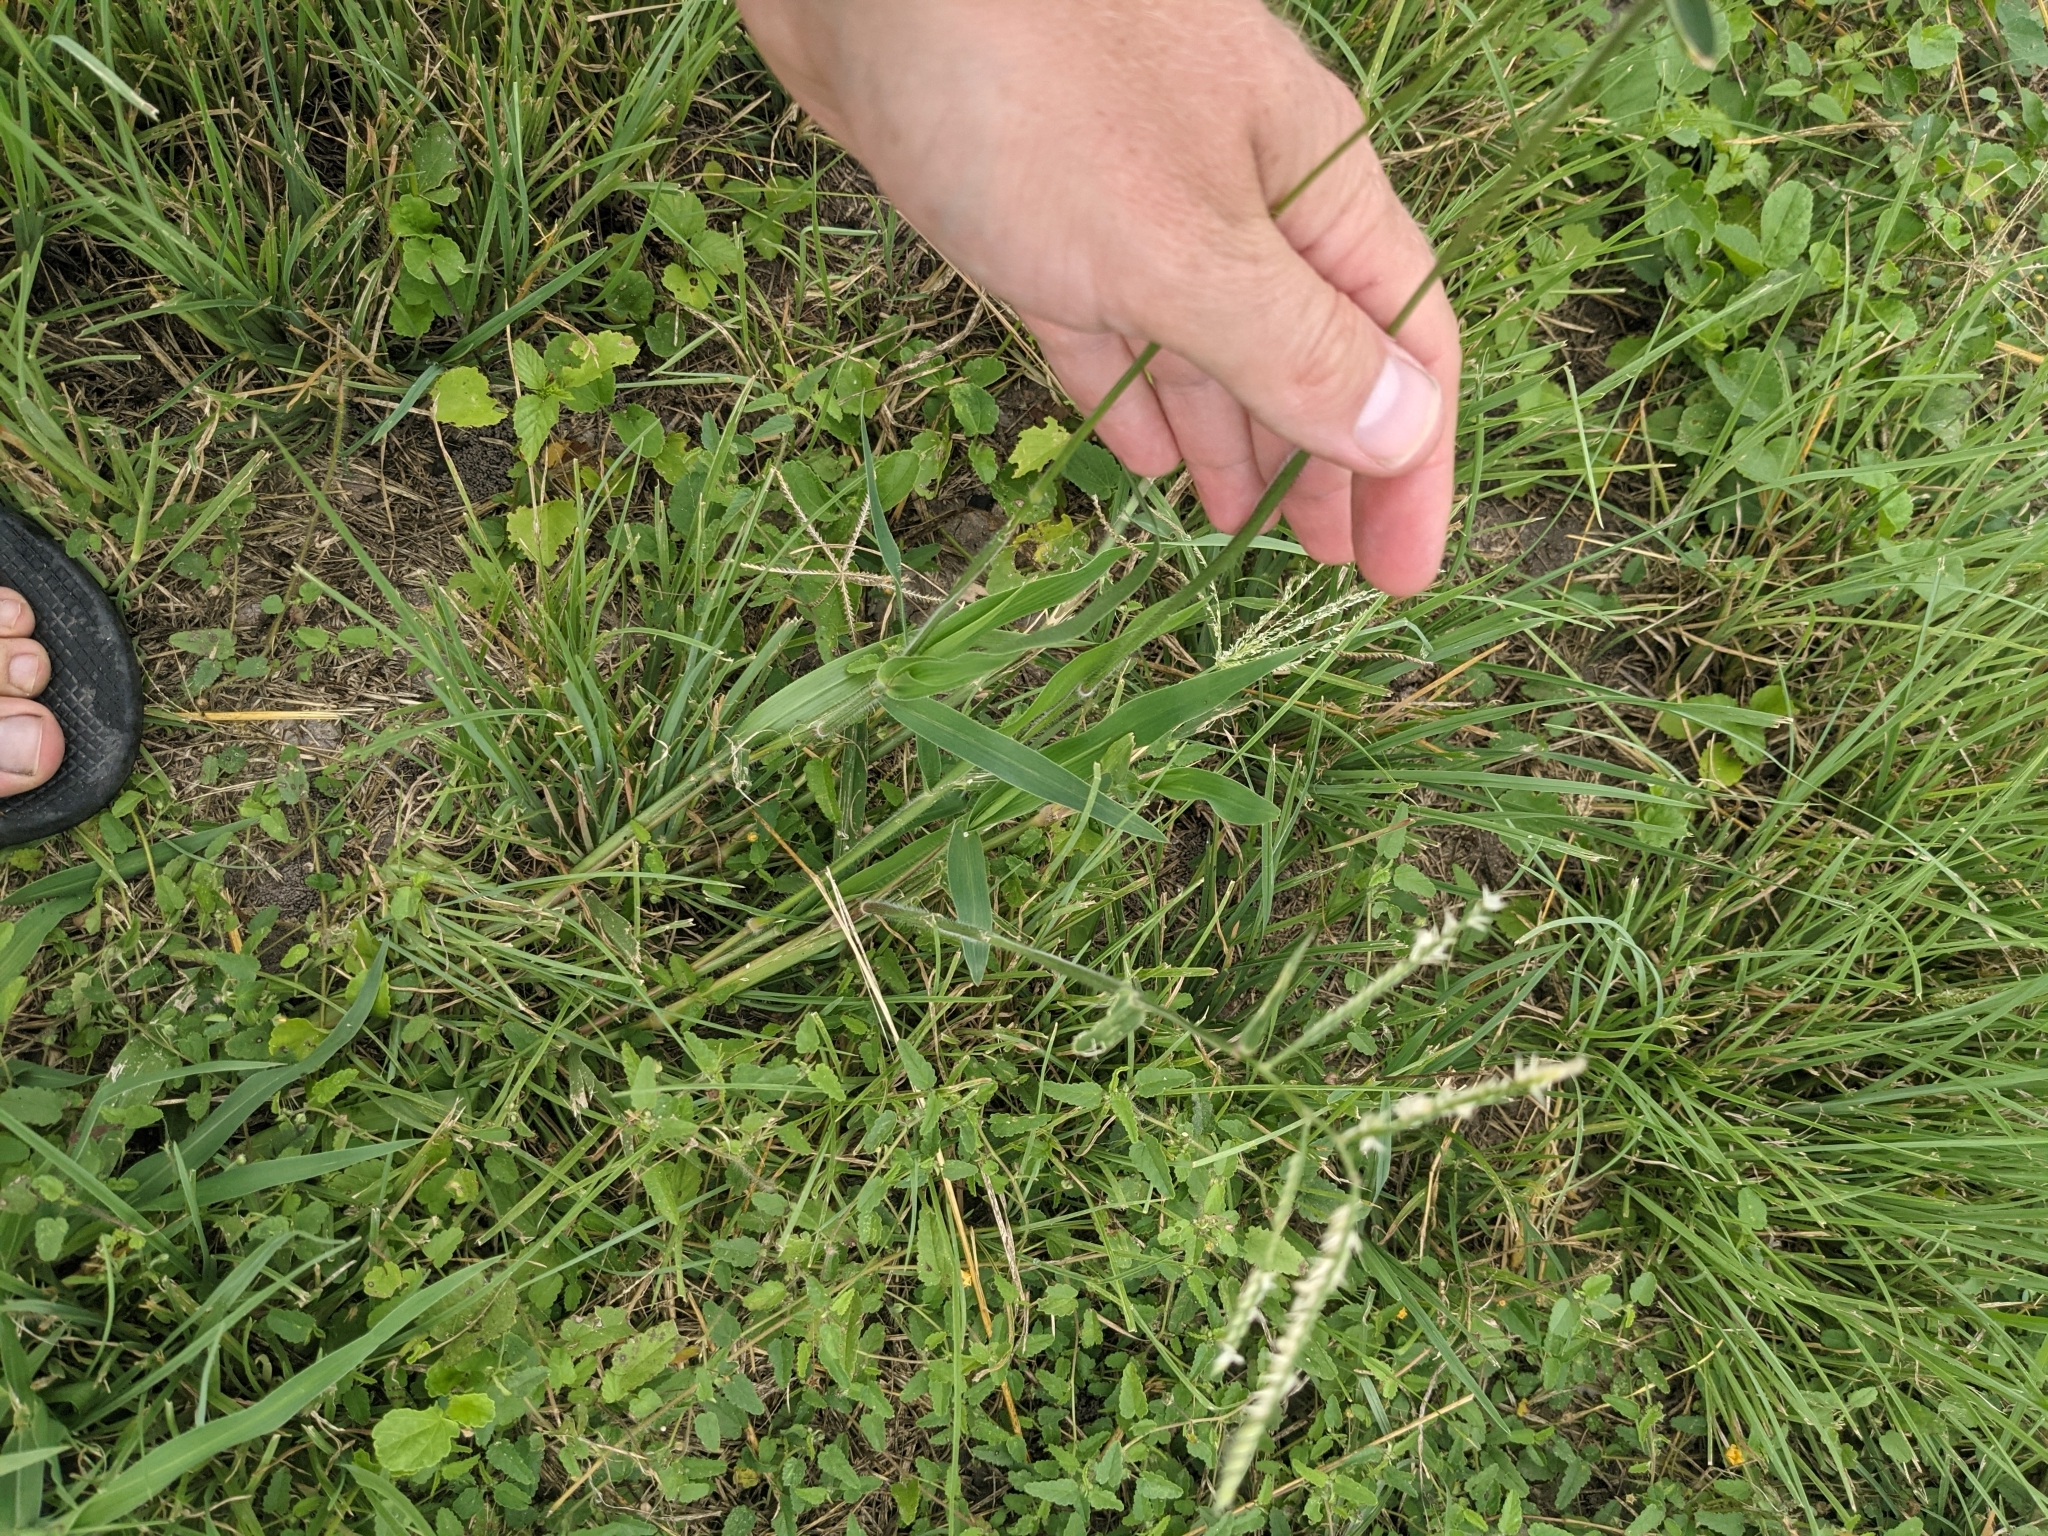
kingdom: Plantae
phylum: Tracheophyta
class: Liliopsida
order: Poales
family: Poaceae
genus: Urochloa
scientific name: Urochloa trichopus
